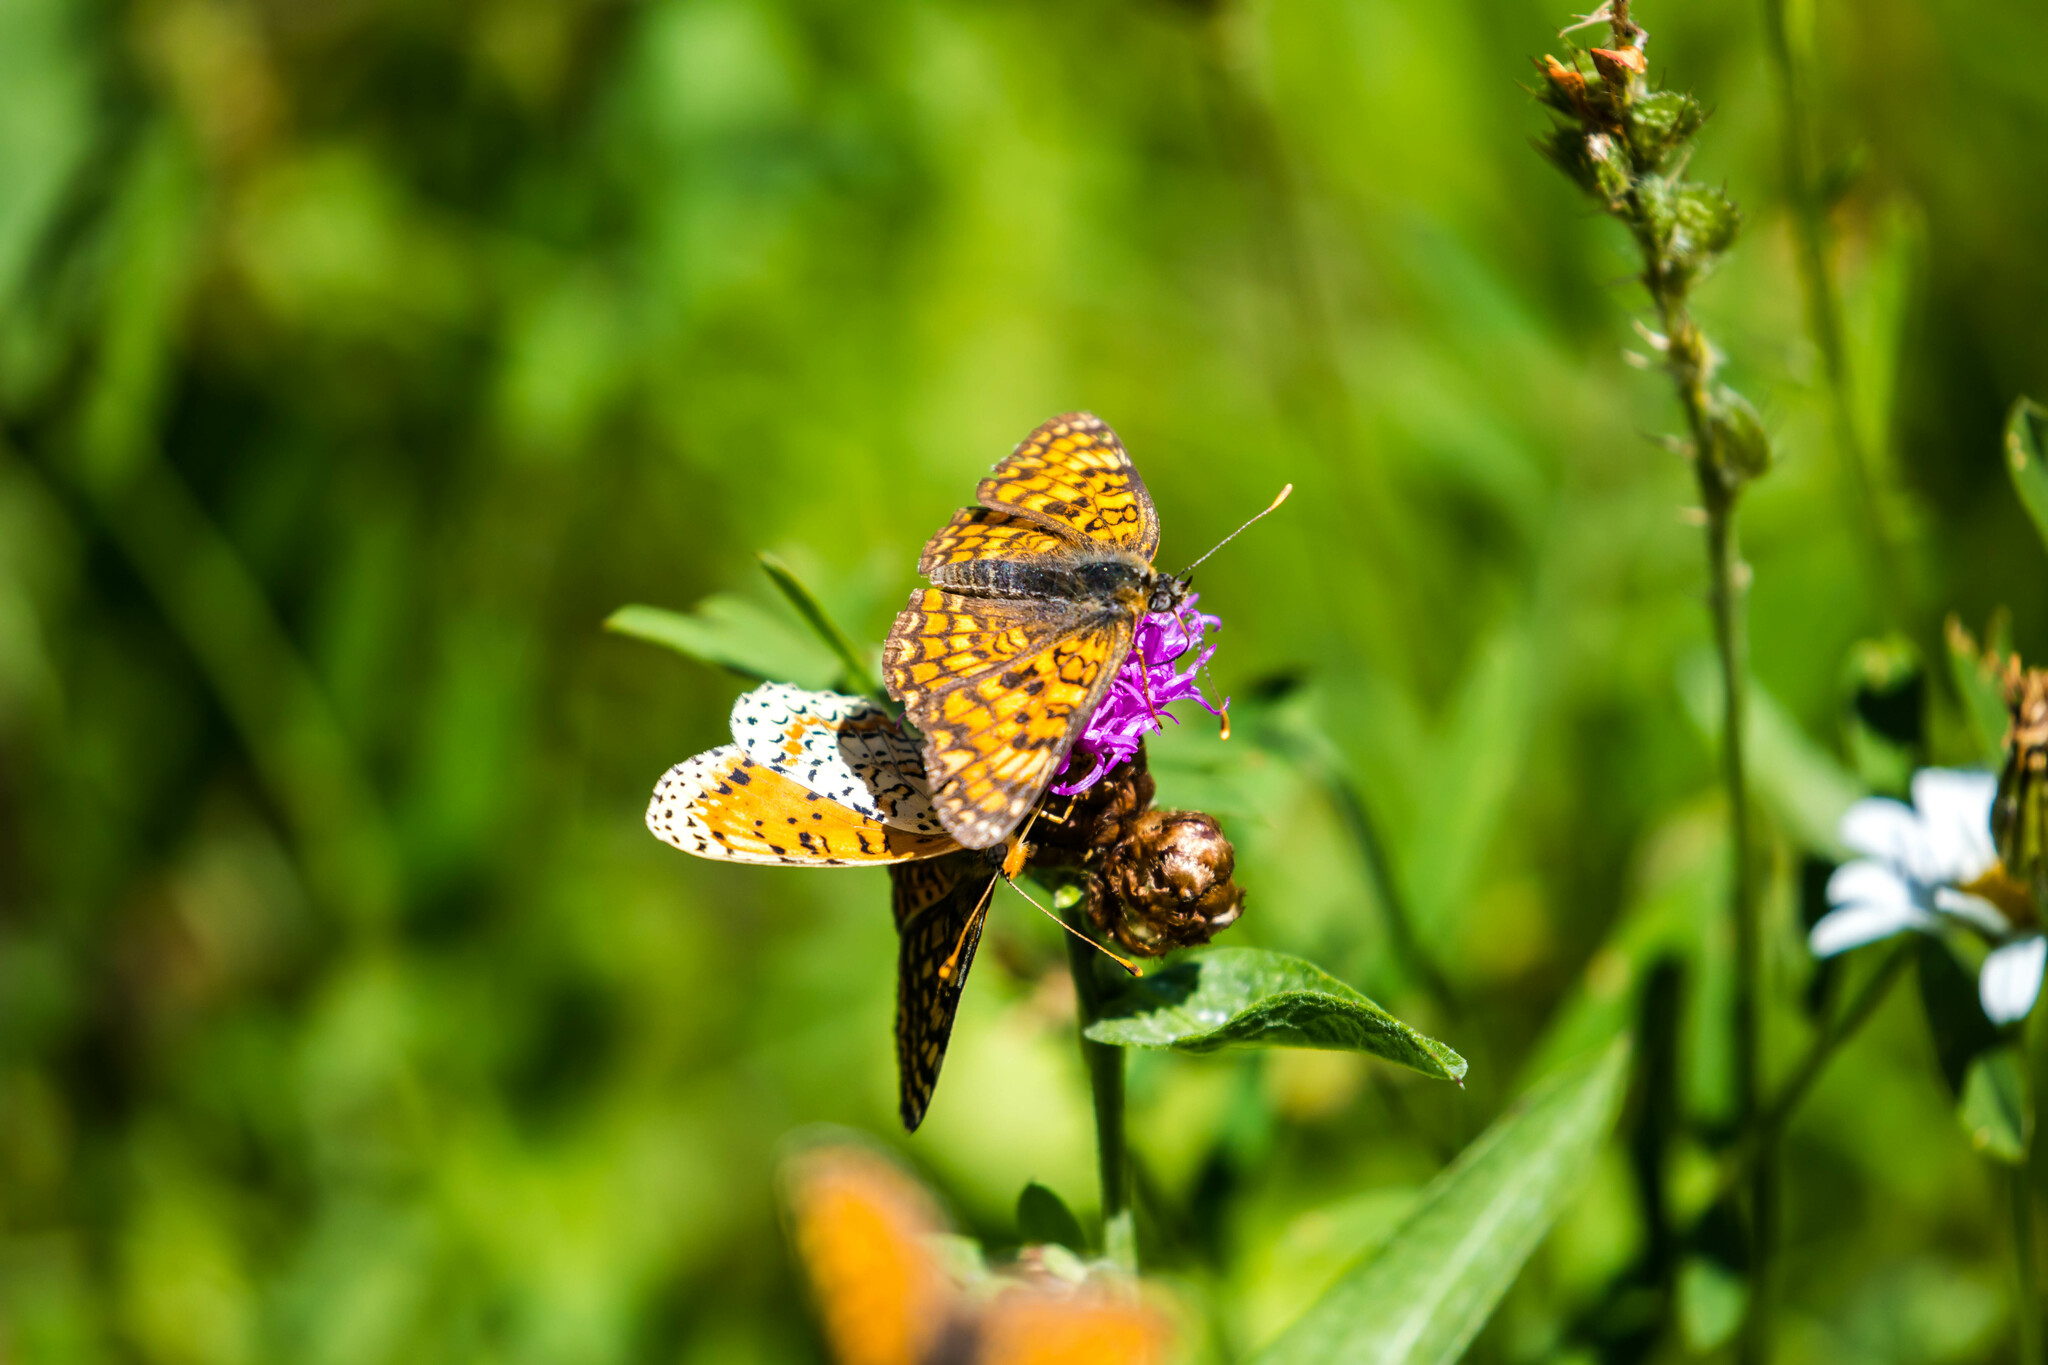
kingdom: Animalia
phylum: Arthropoda
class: Insecta
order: Lepidoptera
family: Nymphalidae
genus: Melitaea
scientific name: Melitaea phoebe
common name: Knapweed fritillary
